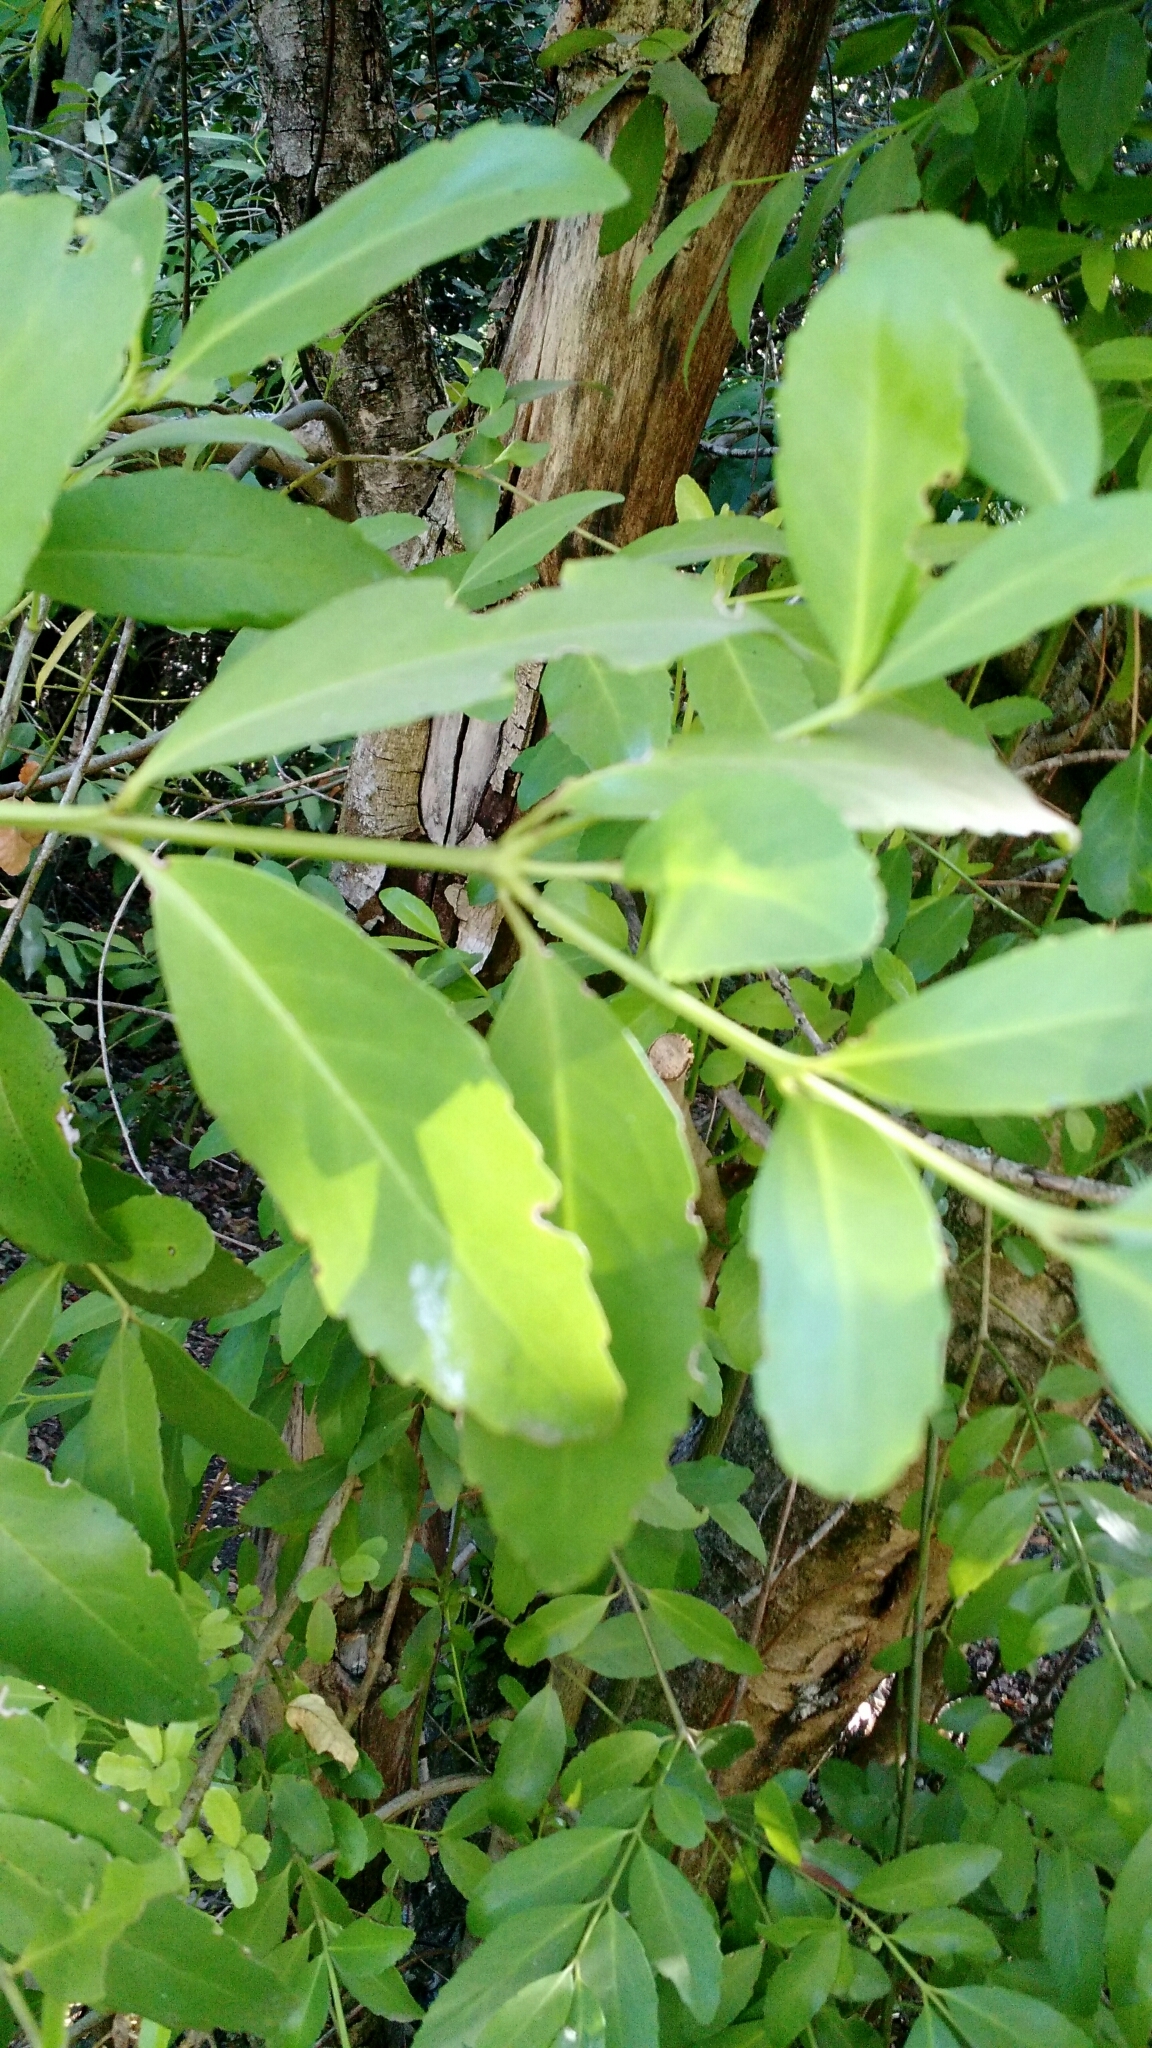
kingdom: Plantae
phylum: Tracheophyta
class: Magnoliopsida
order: Laurales
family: Atherospermataceae
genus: Laurelia
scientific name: Laurelia sempervirens
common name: Chilean laurel
